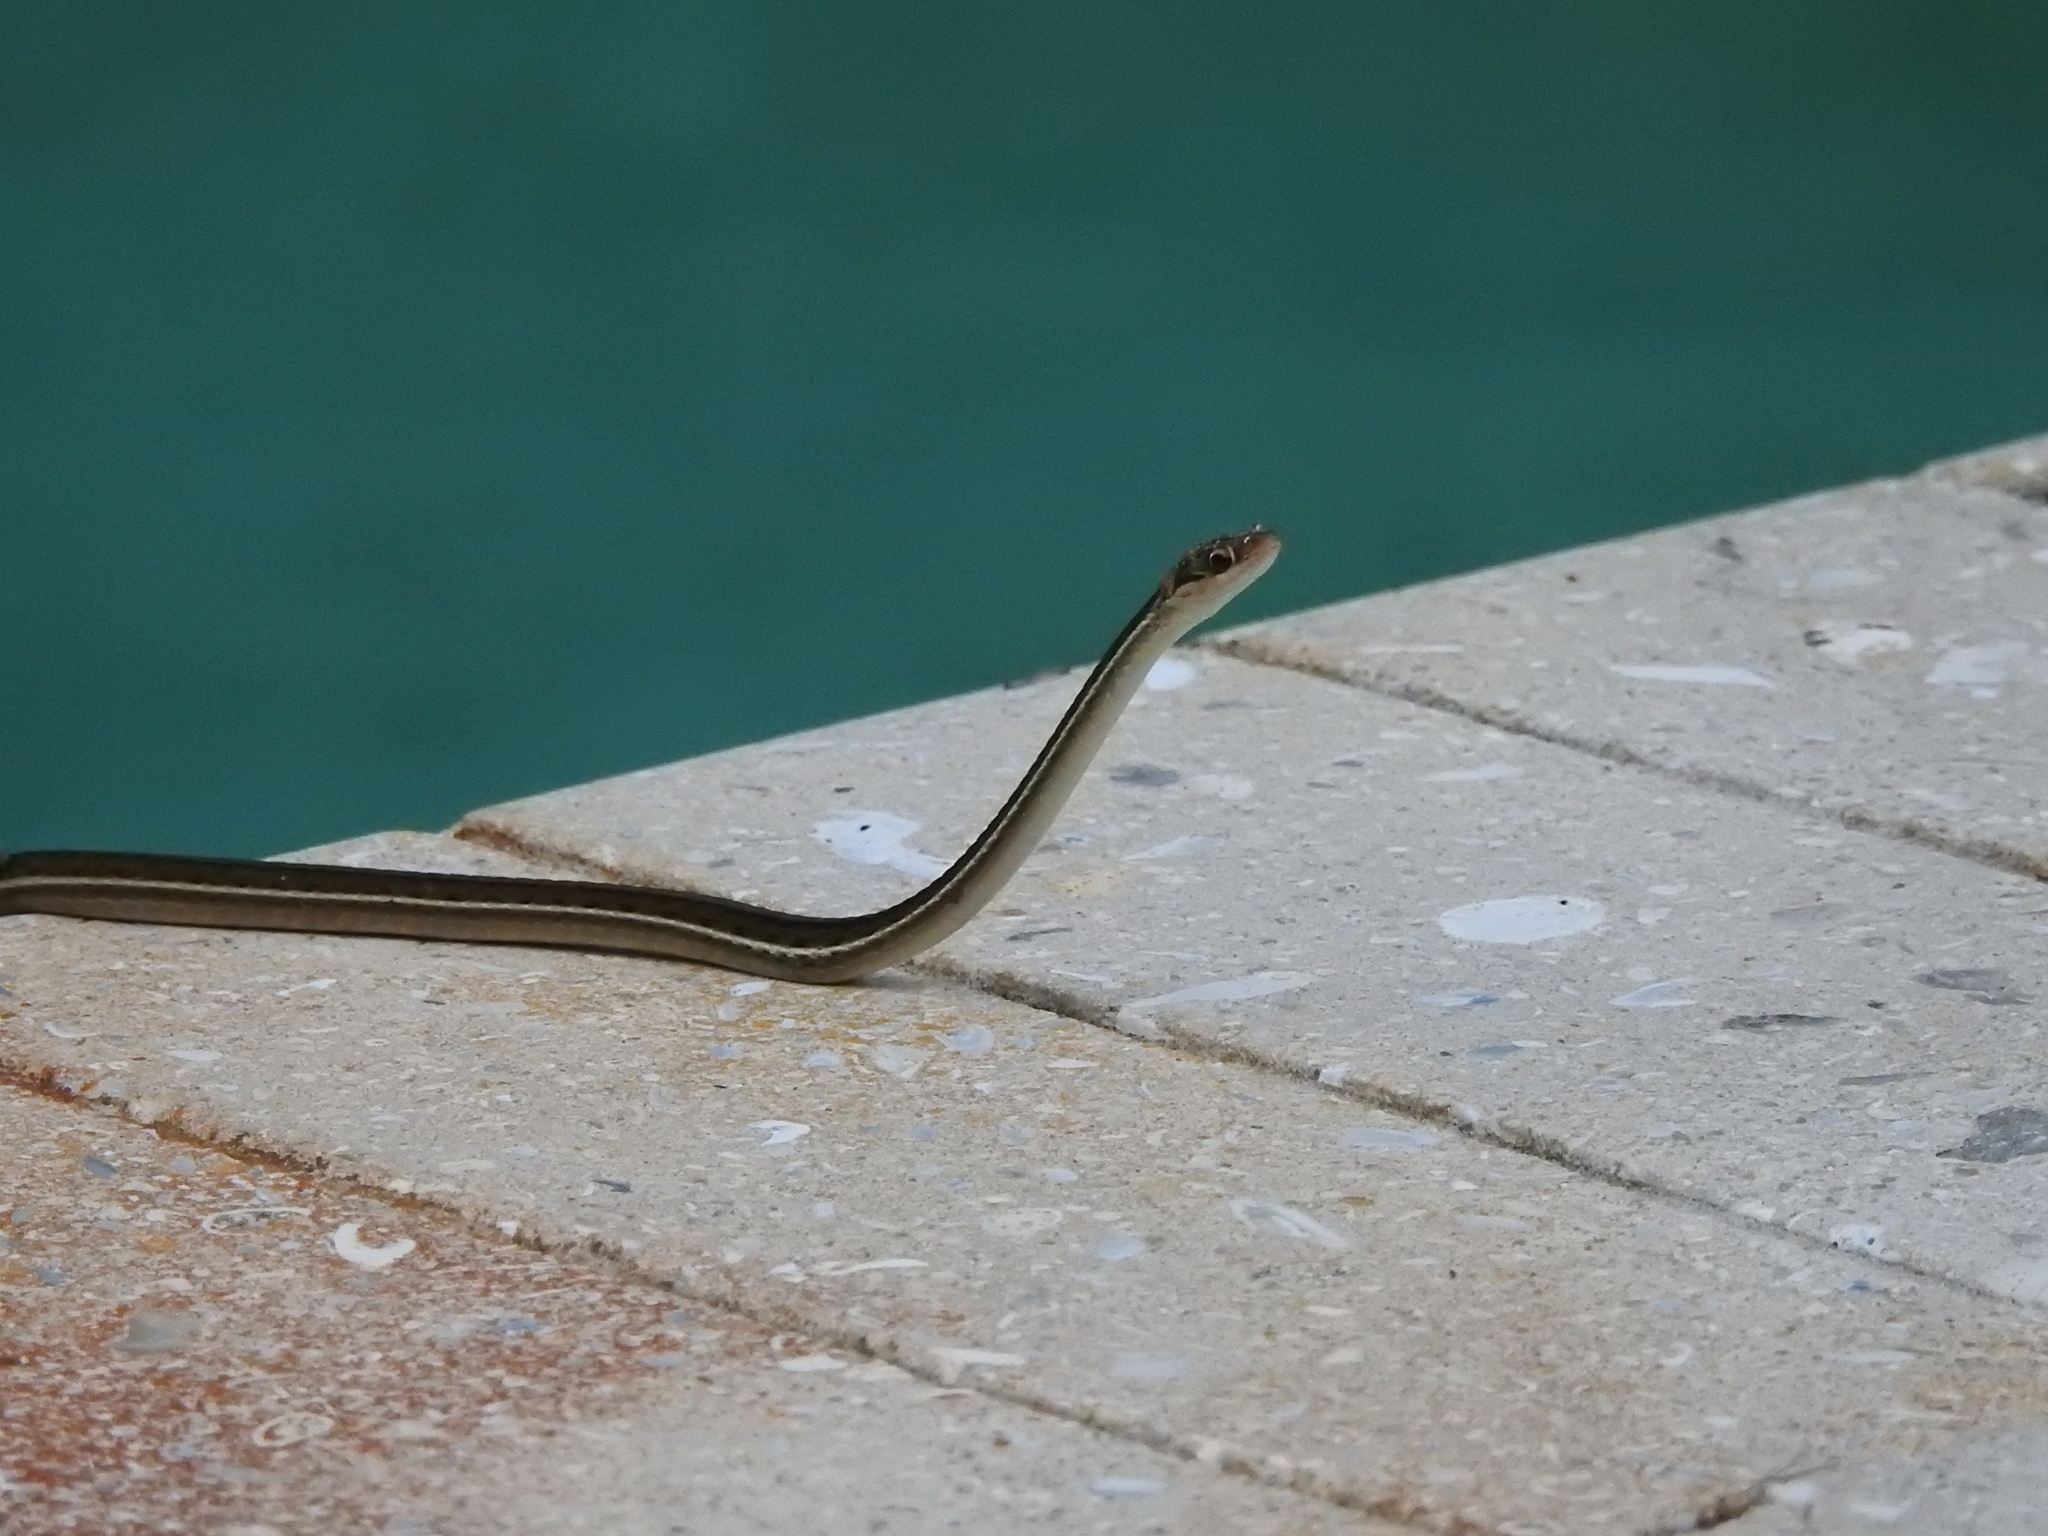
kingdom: Animalia
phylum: Chordata
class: Squamata
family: Colubridae
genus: Thamnophis
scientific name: Thamnophis saurita
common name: Eastern ribbonsnake
